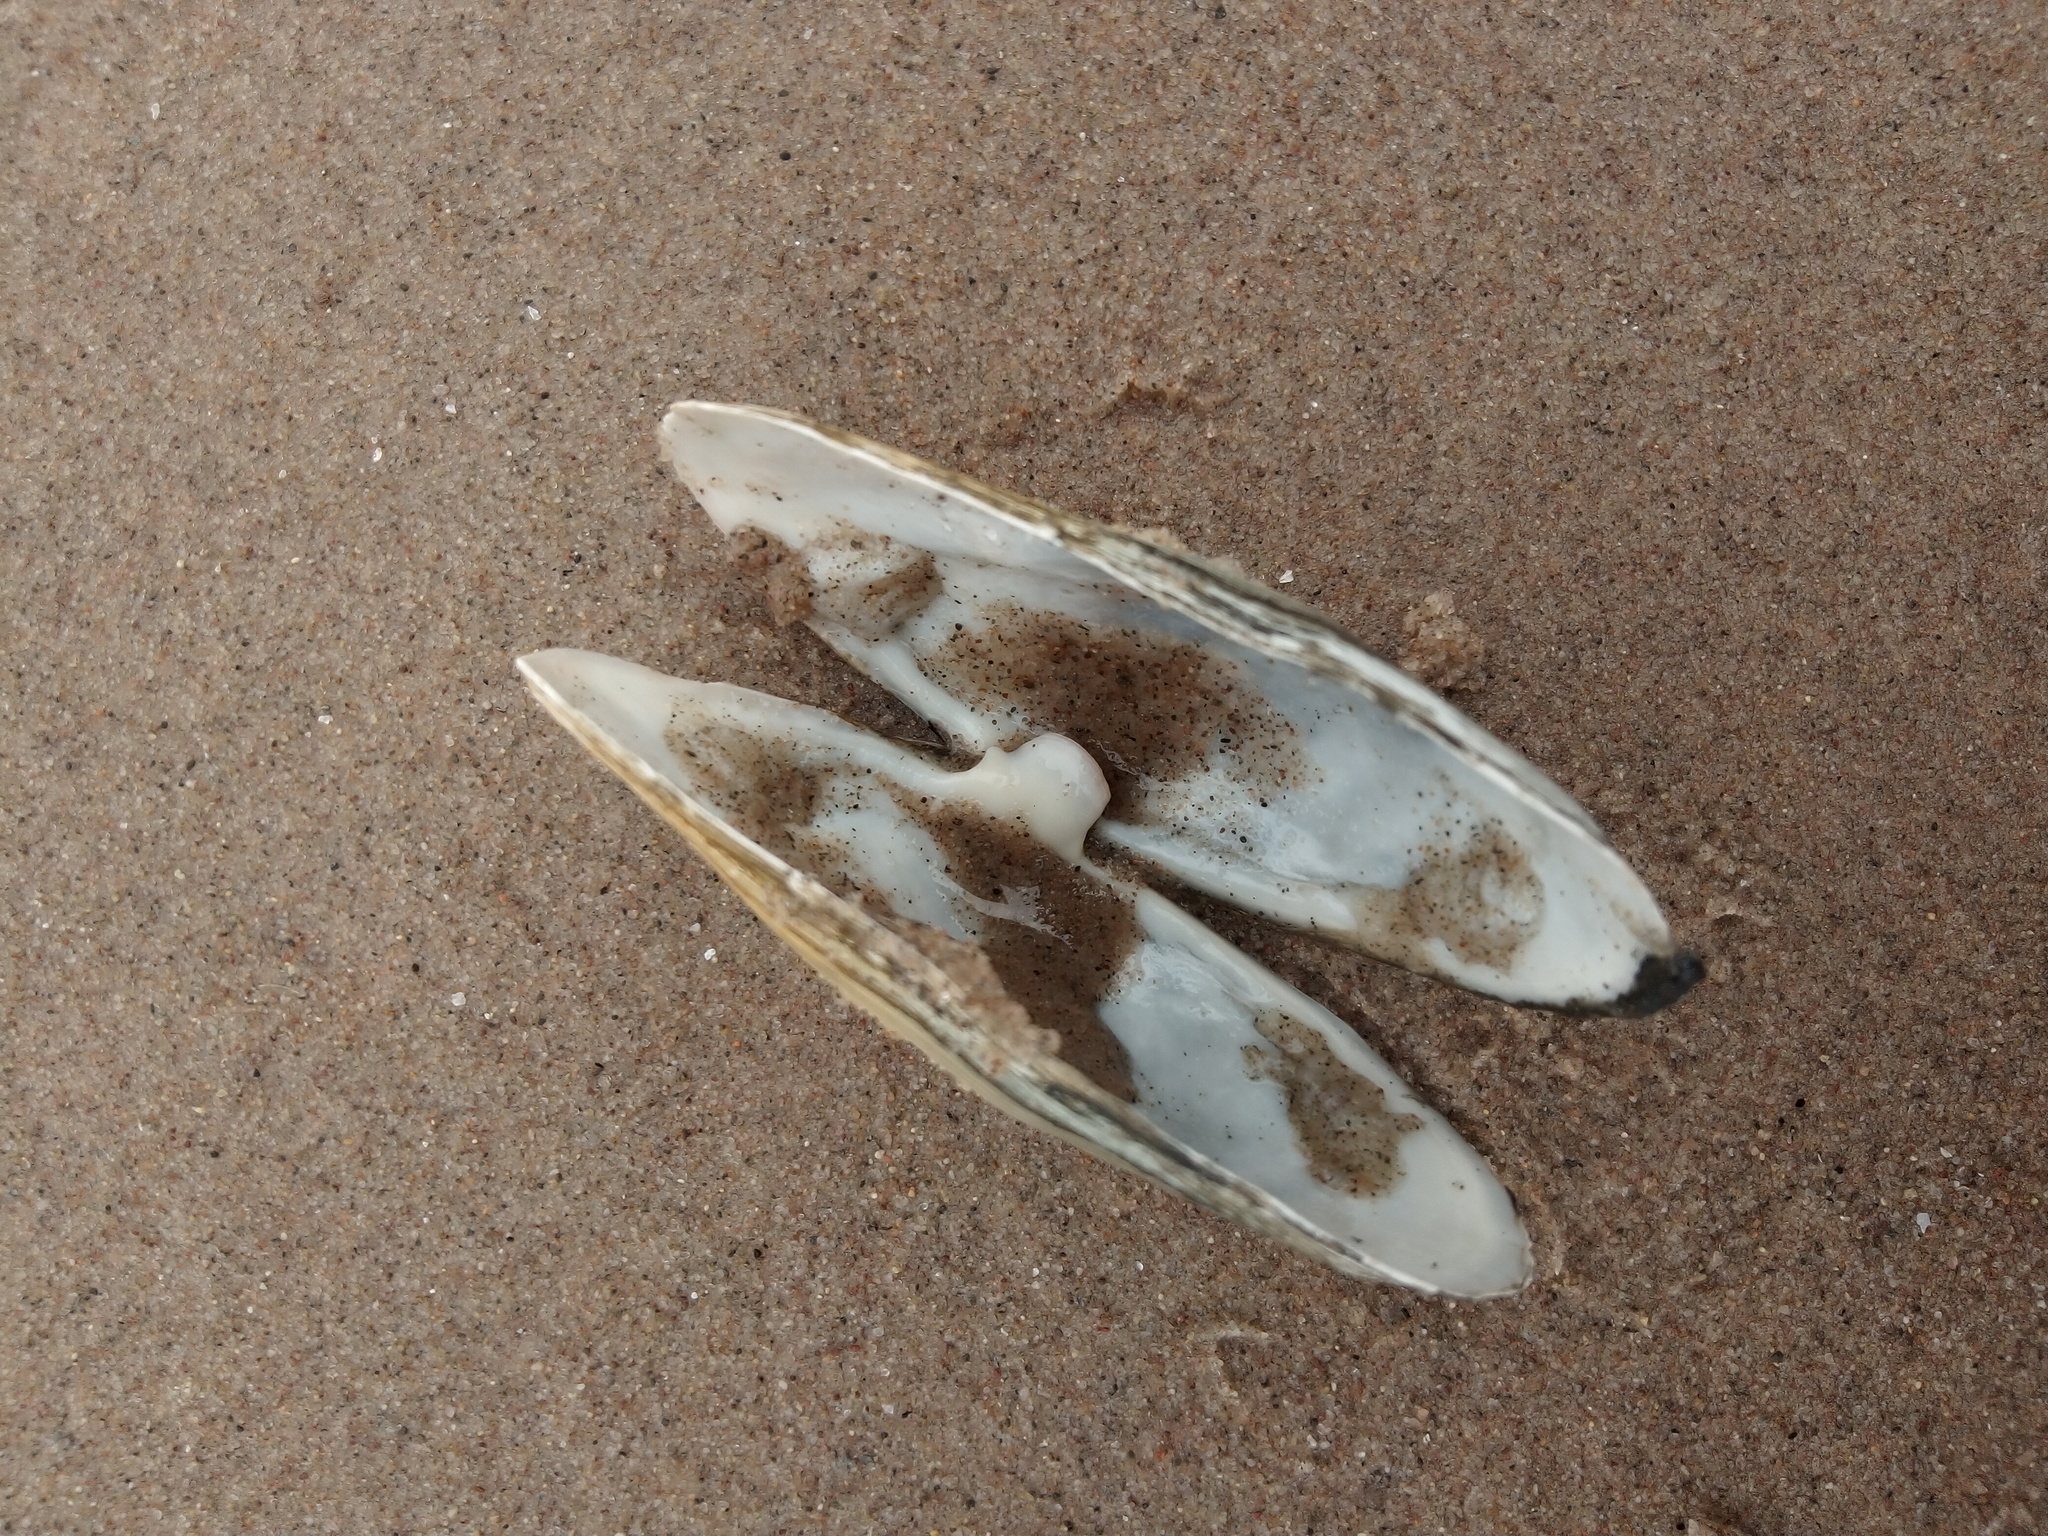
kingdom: Animalia
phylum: Mollusca
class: Bivalvia
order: Myida
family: Myidae
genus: Mya
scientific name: Mya arenaria
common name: Soft-shelled clam
